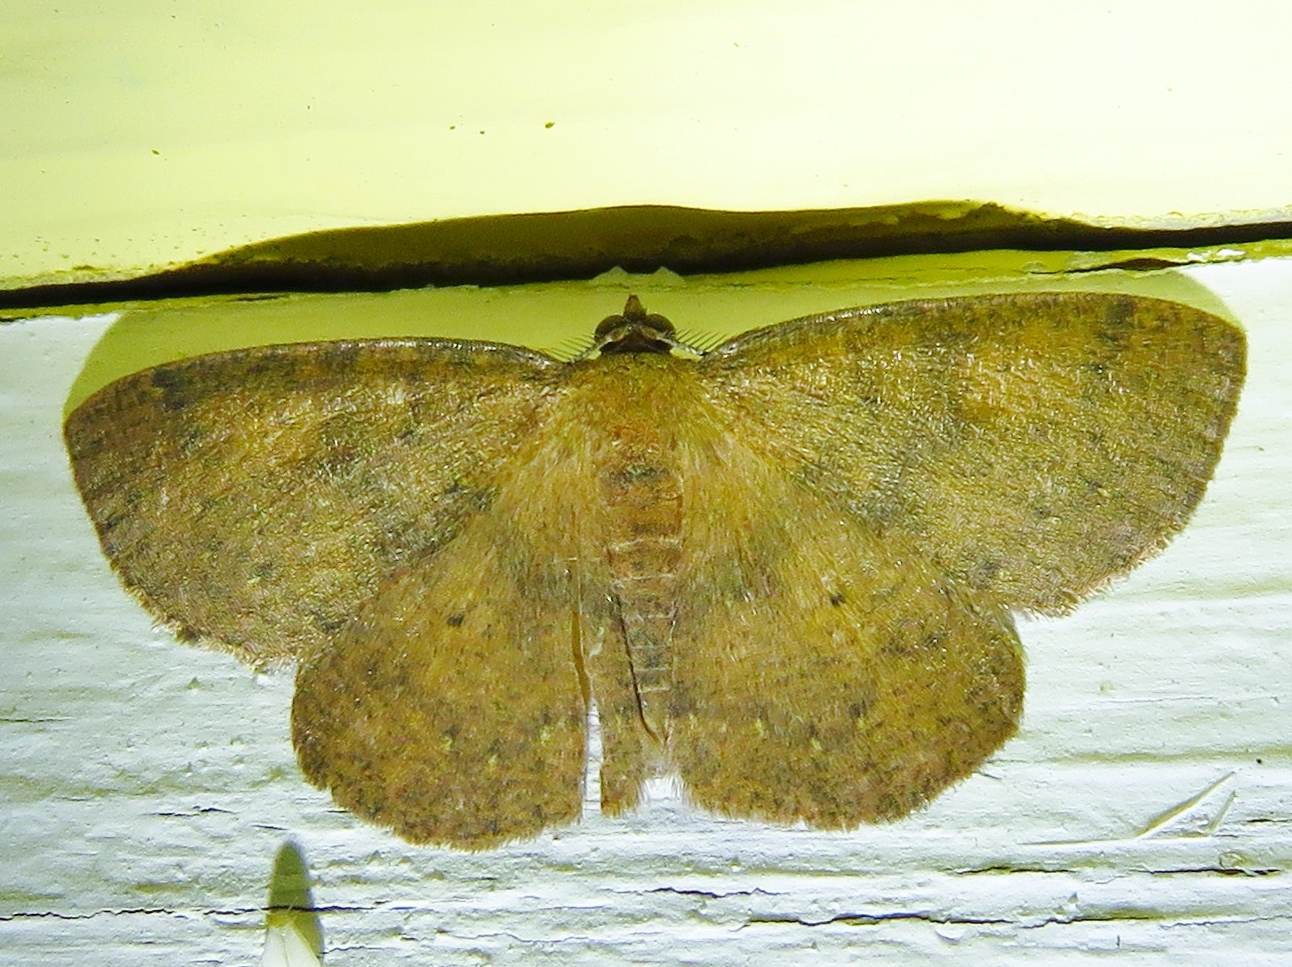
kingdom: Animalia
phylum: Arthropoda
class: Insecta
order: Lepidoptera
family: Geometridae
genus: Ilexia
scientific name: Ilexia intractata
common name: Black-dotted ruddy moth
